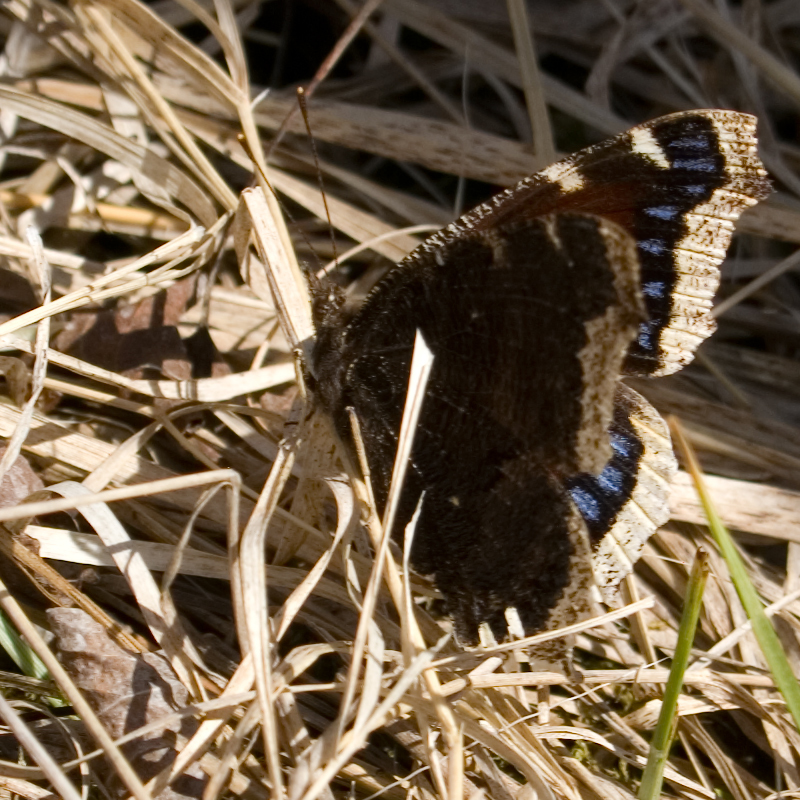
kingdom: Animalia
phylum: Arthropoda
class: Insecta
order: Lepidoptera
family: Nymphalidae
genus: Nymphalis
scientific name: Nymphalis antiopa
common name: Camberwell beauty
